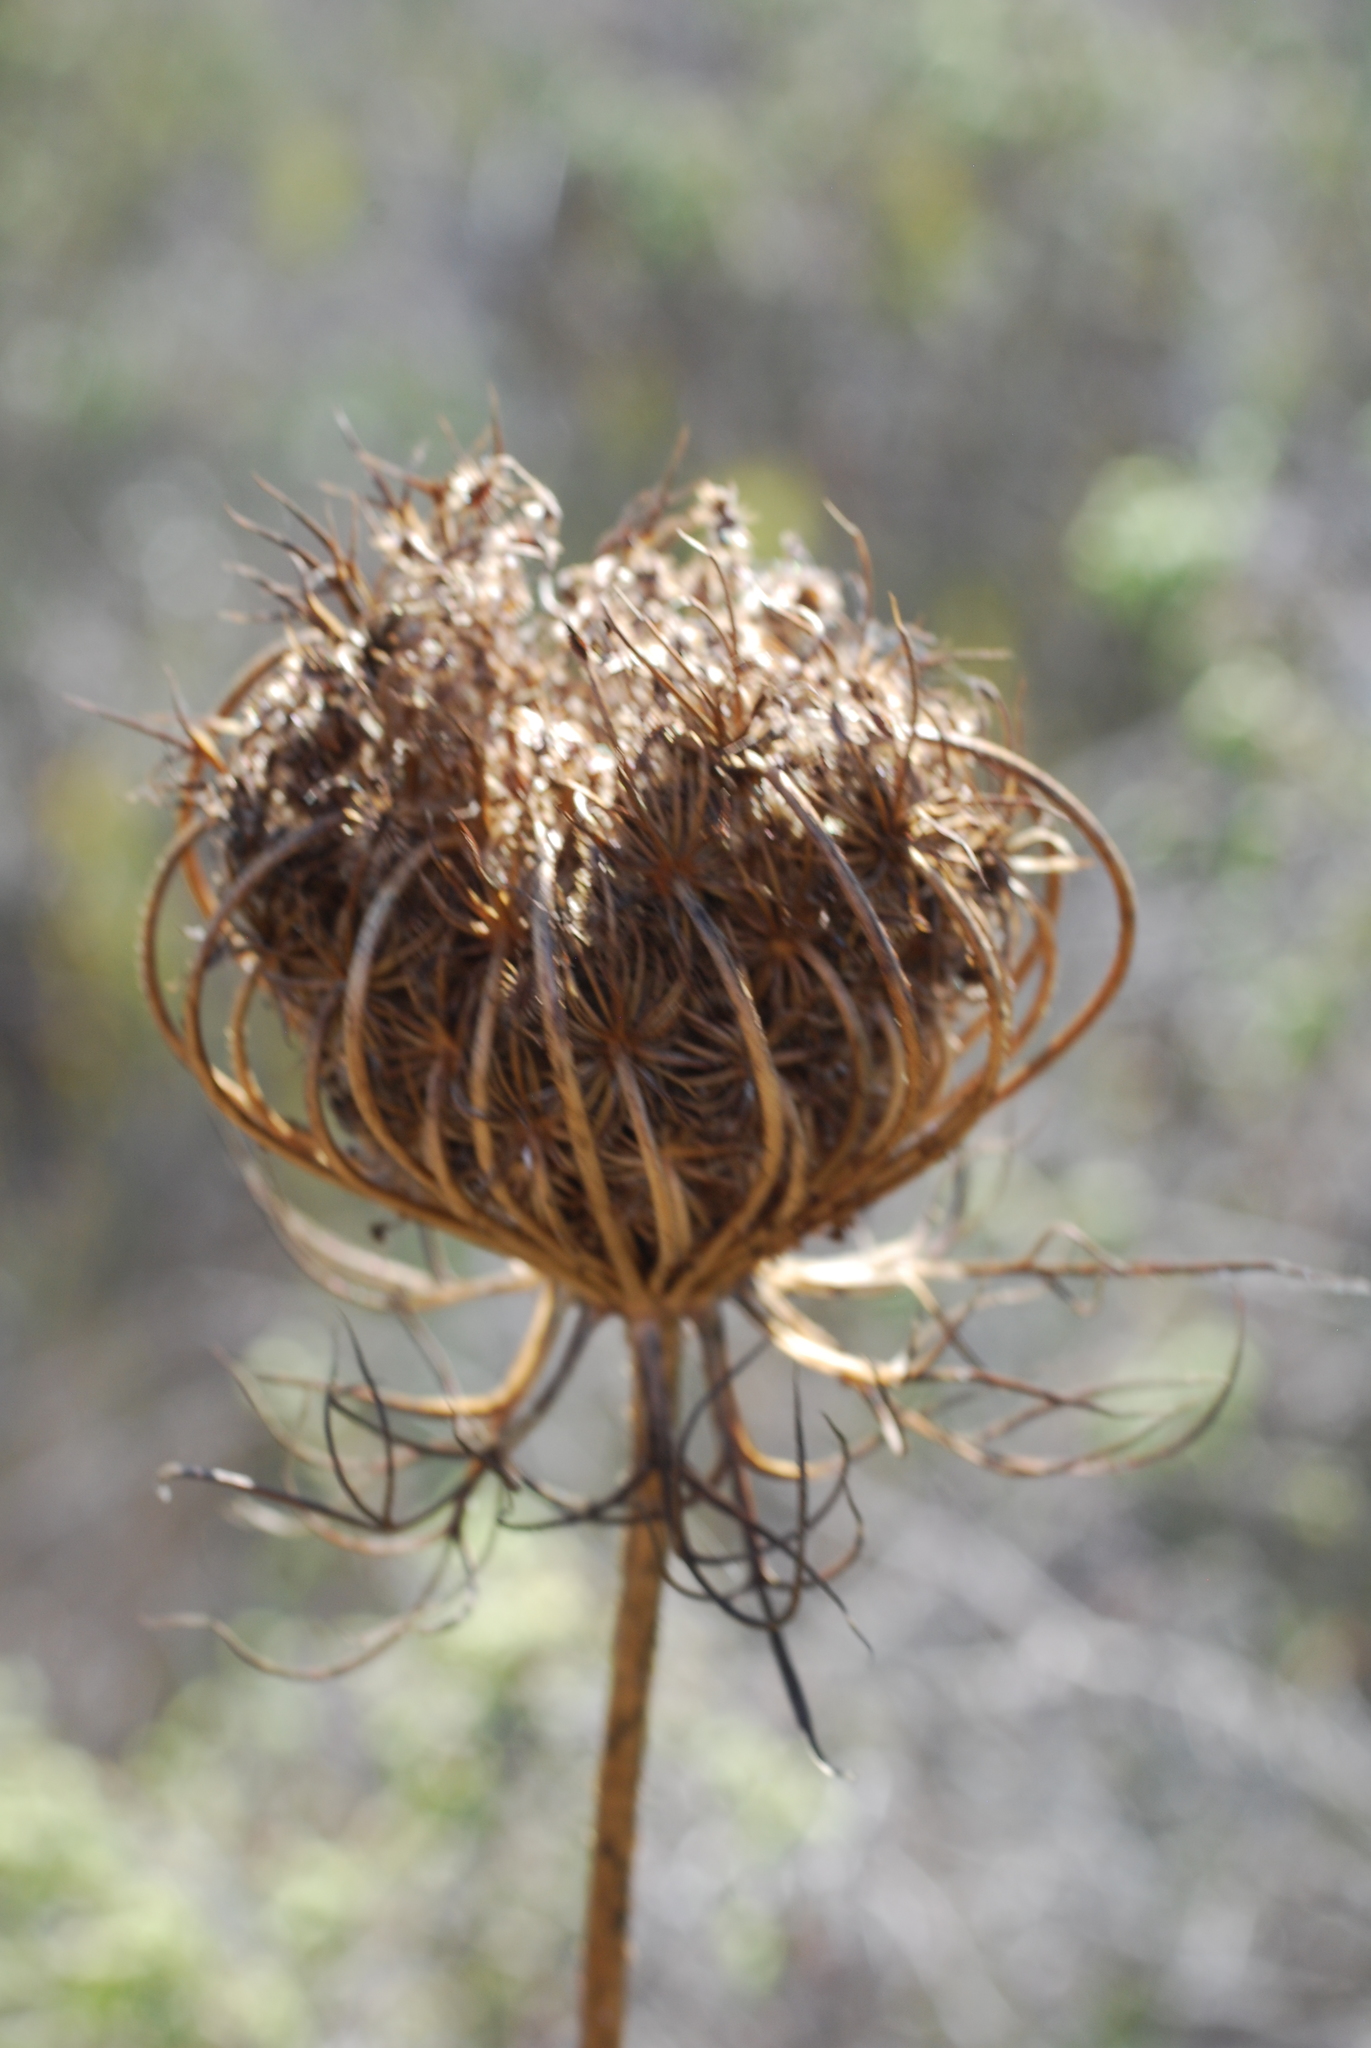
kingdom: Plantae
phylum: Tracheophyta
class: Magnoliopsida
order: Apiales
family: Apiaceae
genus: Daucus
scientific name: Daucus carota
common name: Wild carrot
